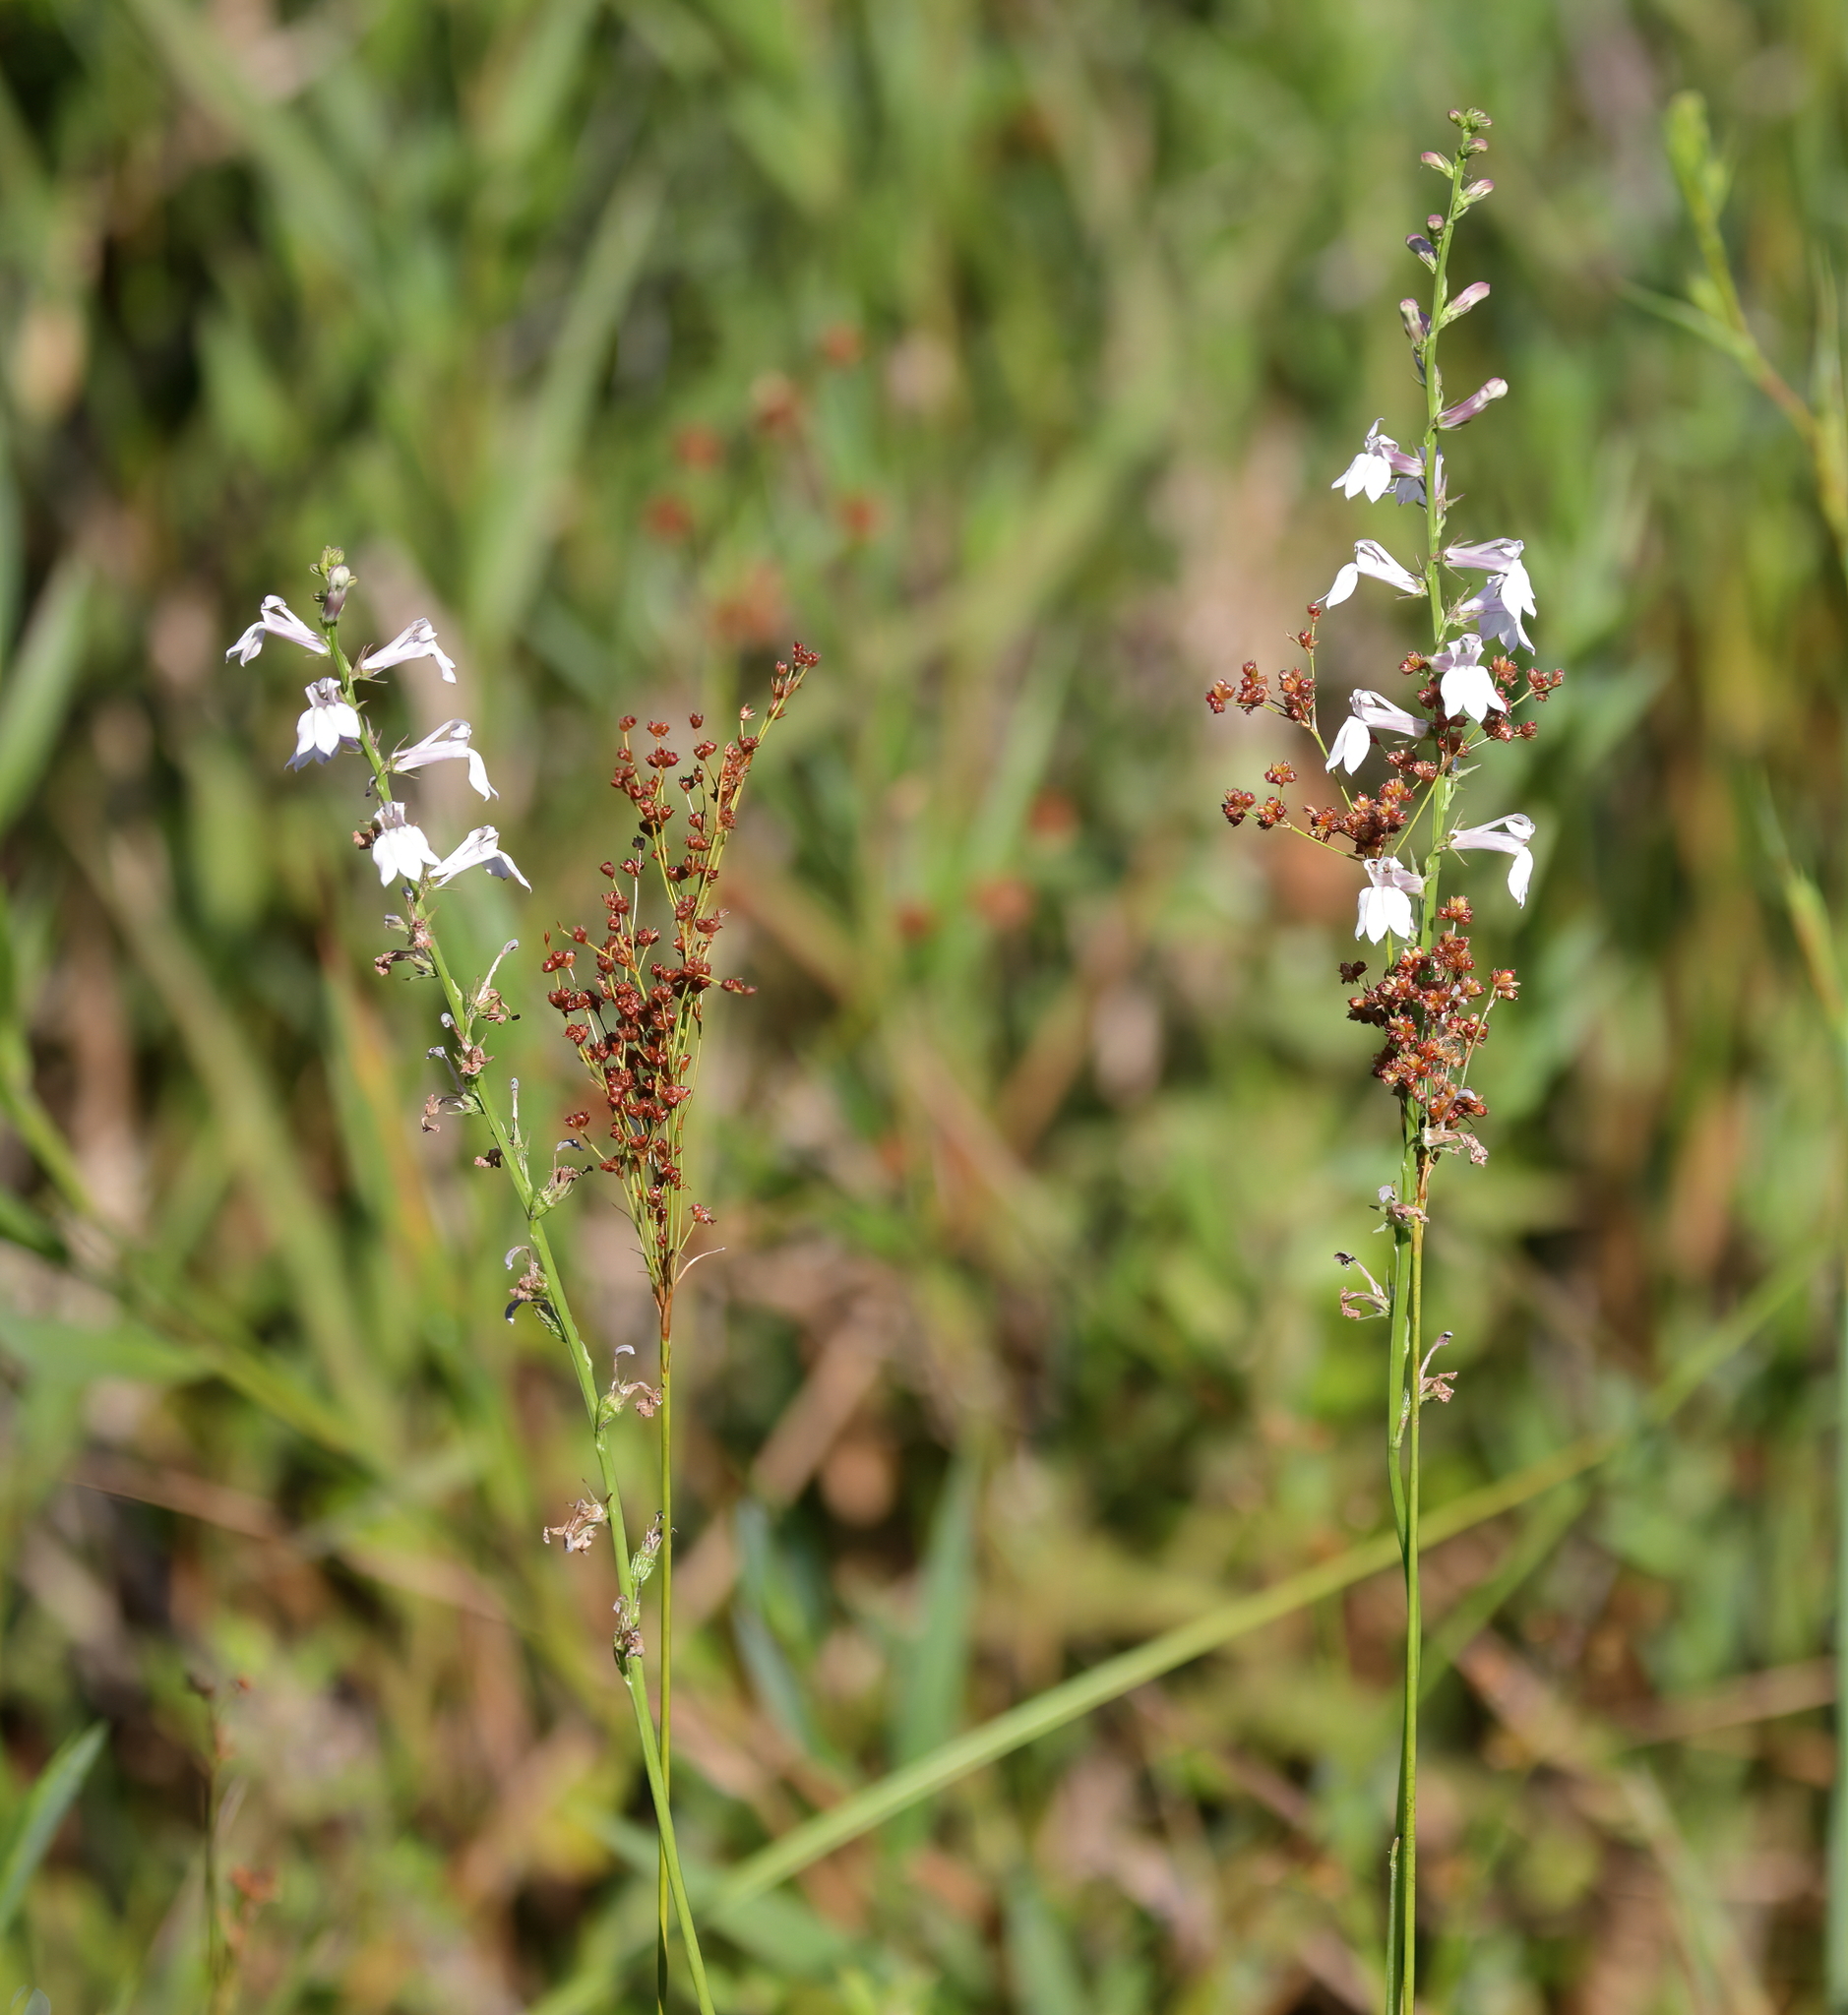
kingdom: Plantae
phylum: Tracheophyta
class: Magnoliopsida
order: Asterales
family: Campanulaceae
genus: Lobelia
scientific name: Lobelia floridana
